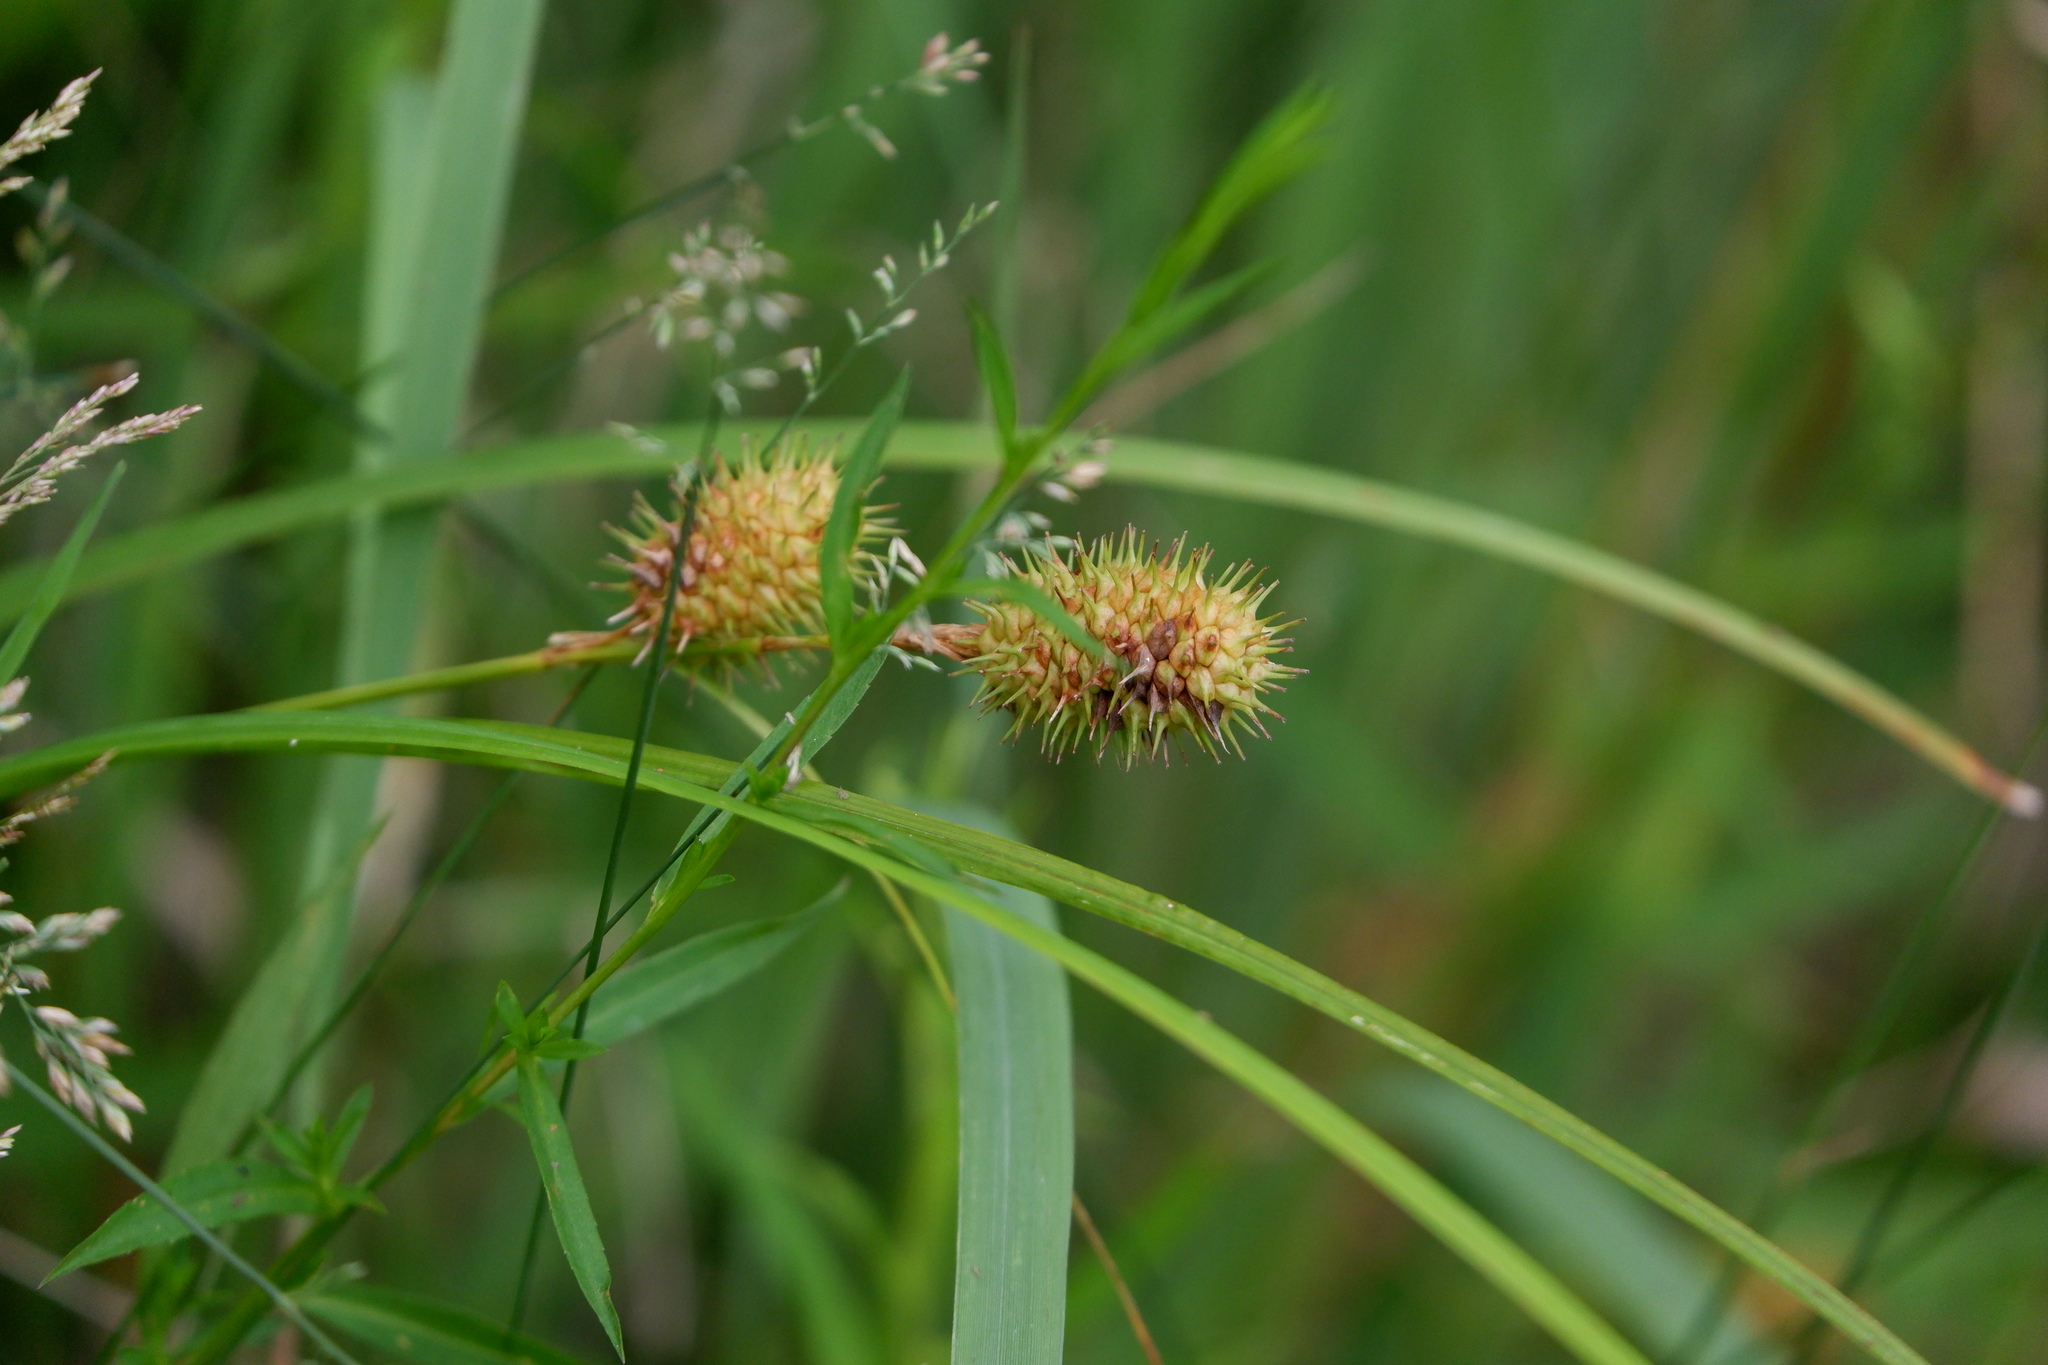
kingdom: Plantae
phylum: Tracheophyta
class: Liliopsida
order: Poales
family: Cyperaceae
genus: Carex
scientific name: Carex squarrosa
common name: Narrow-leaved cattail sedge
